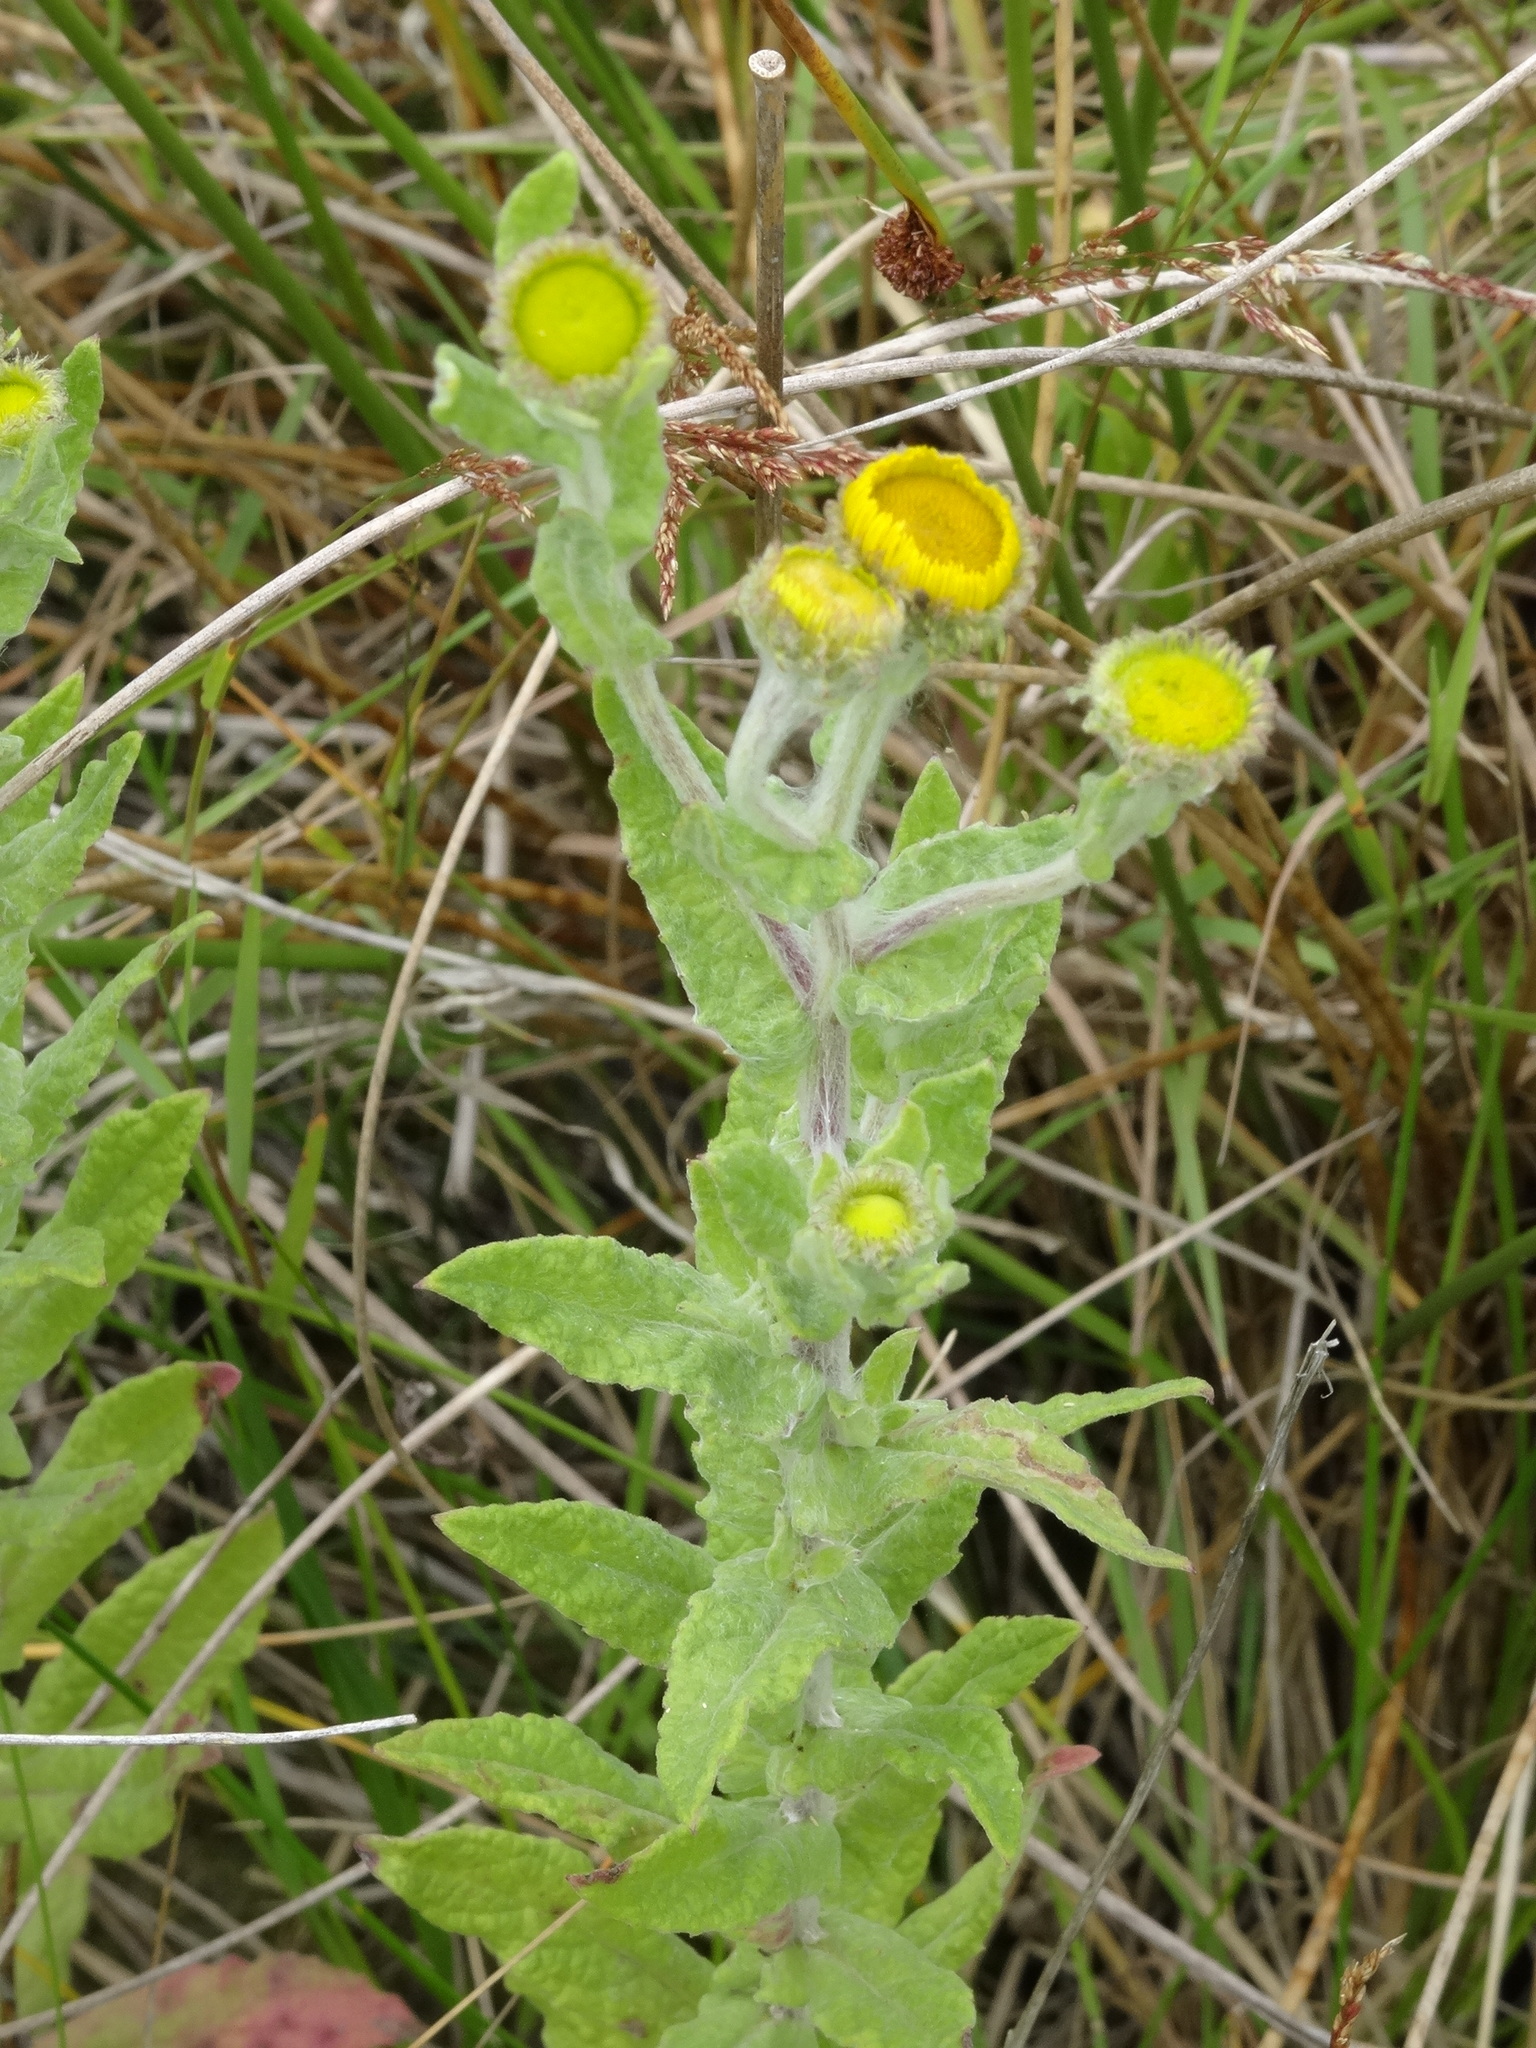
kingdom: Plantae
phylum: Tracheophyta
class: Magnoliopsida
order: Asterales
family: Asteraceae
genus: Pulicaria
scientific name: Pulicaria dysenterica
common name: Common fleabane
